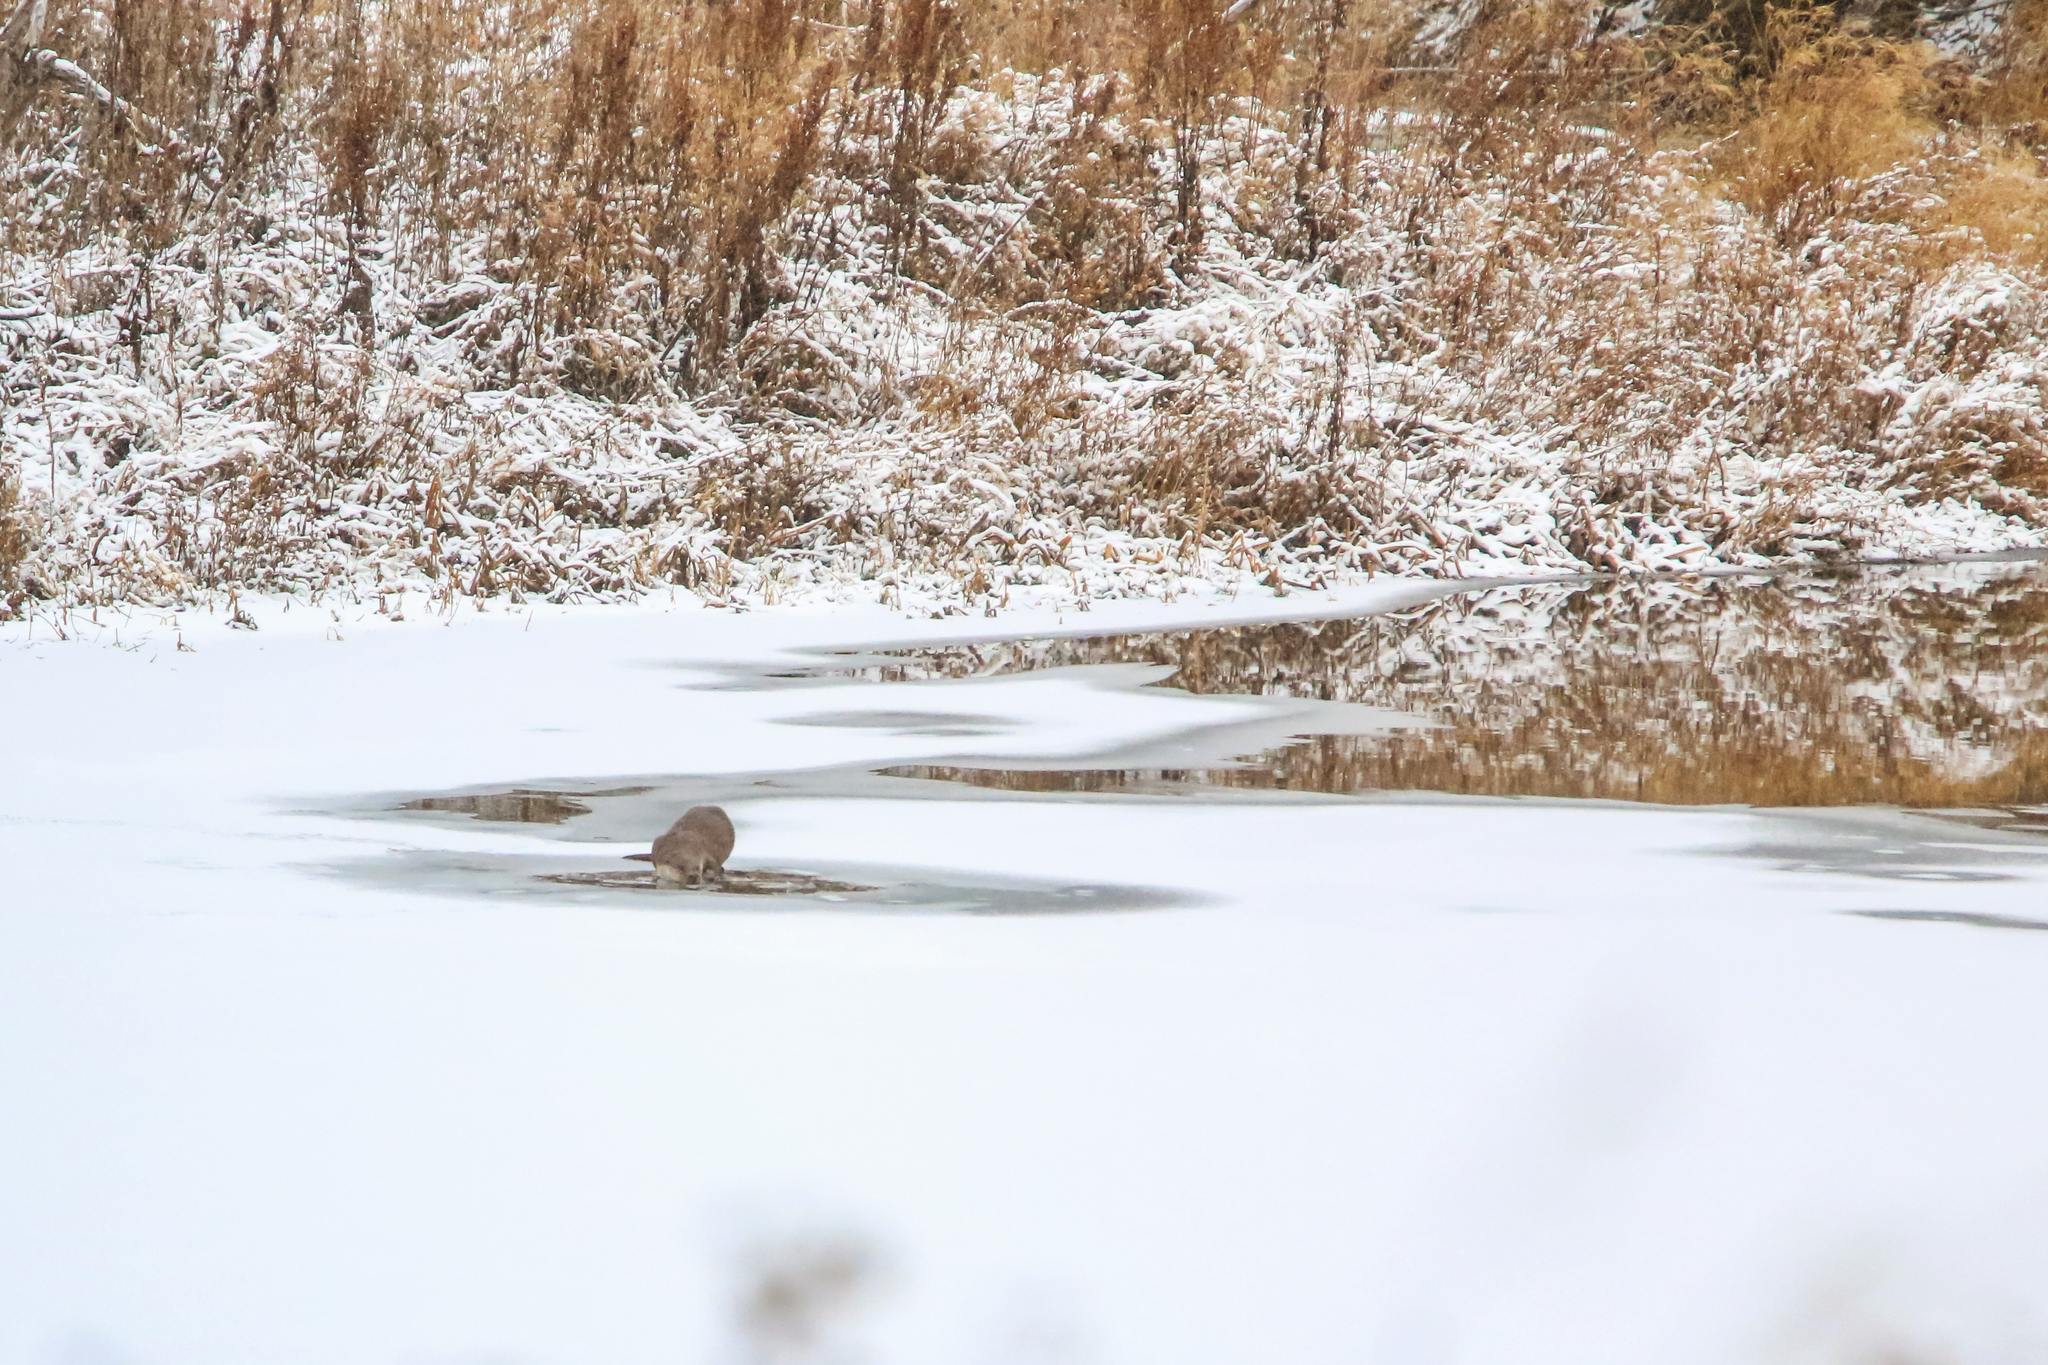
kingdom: Animalia
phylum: Chordata
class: Mammalia
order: Carnivora
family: Mustelidae
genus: Lutra
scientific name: Lutra lutra
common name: European otter
